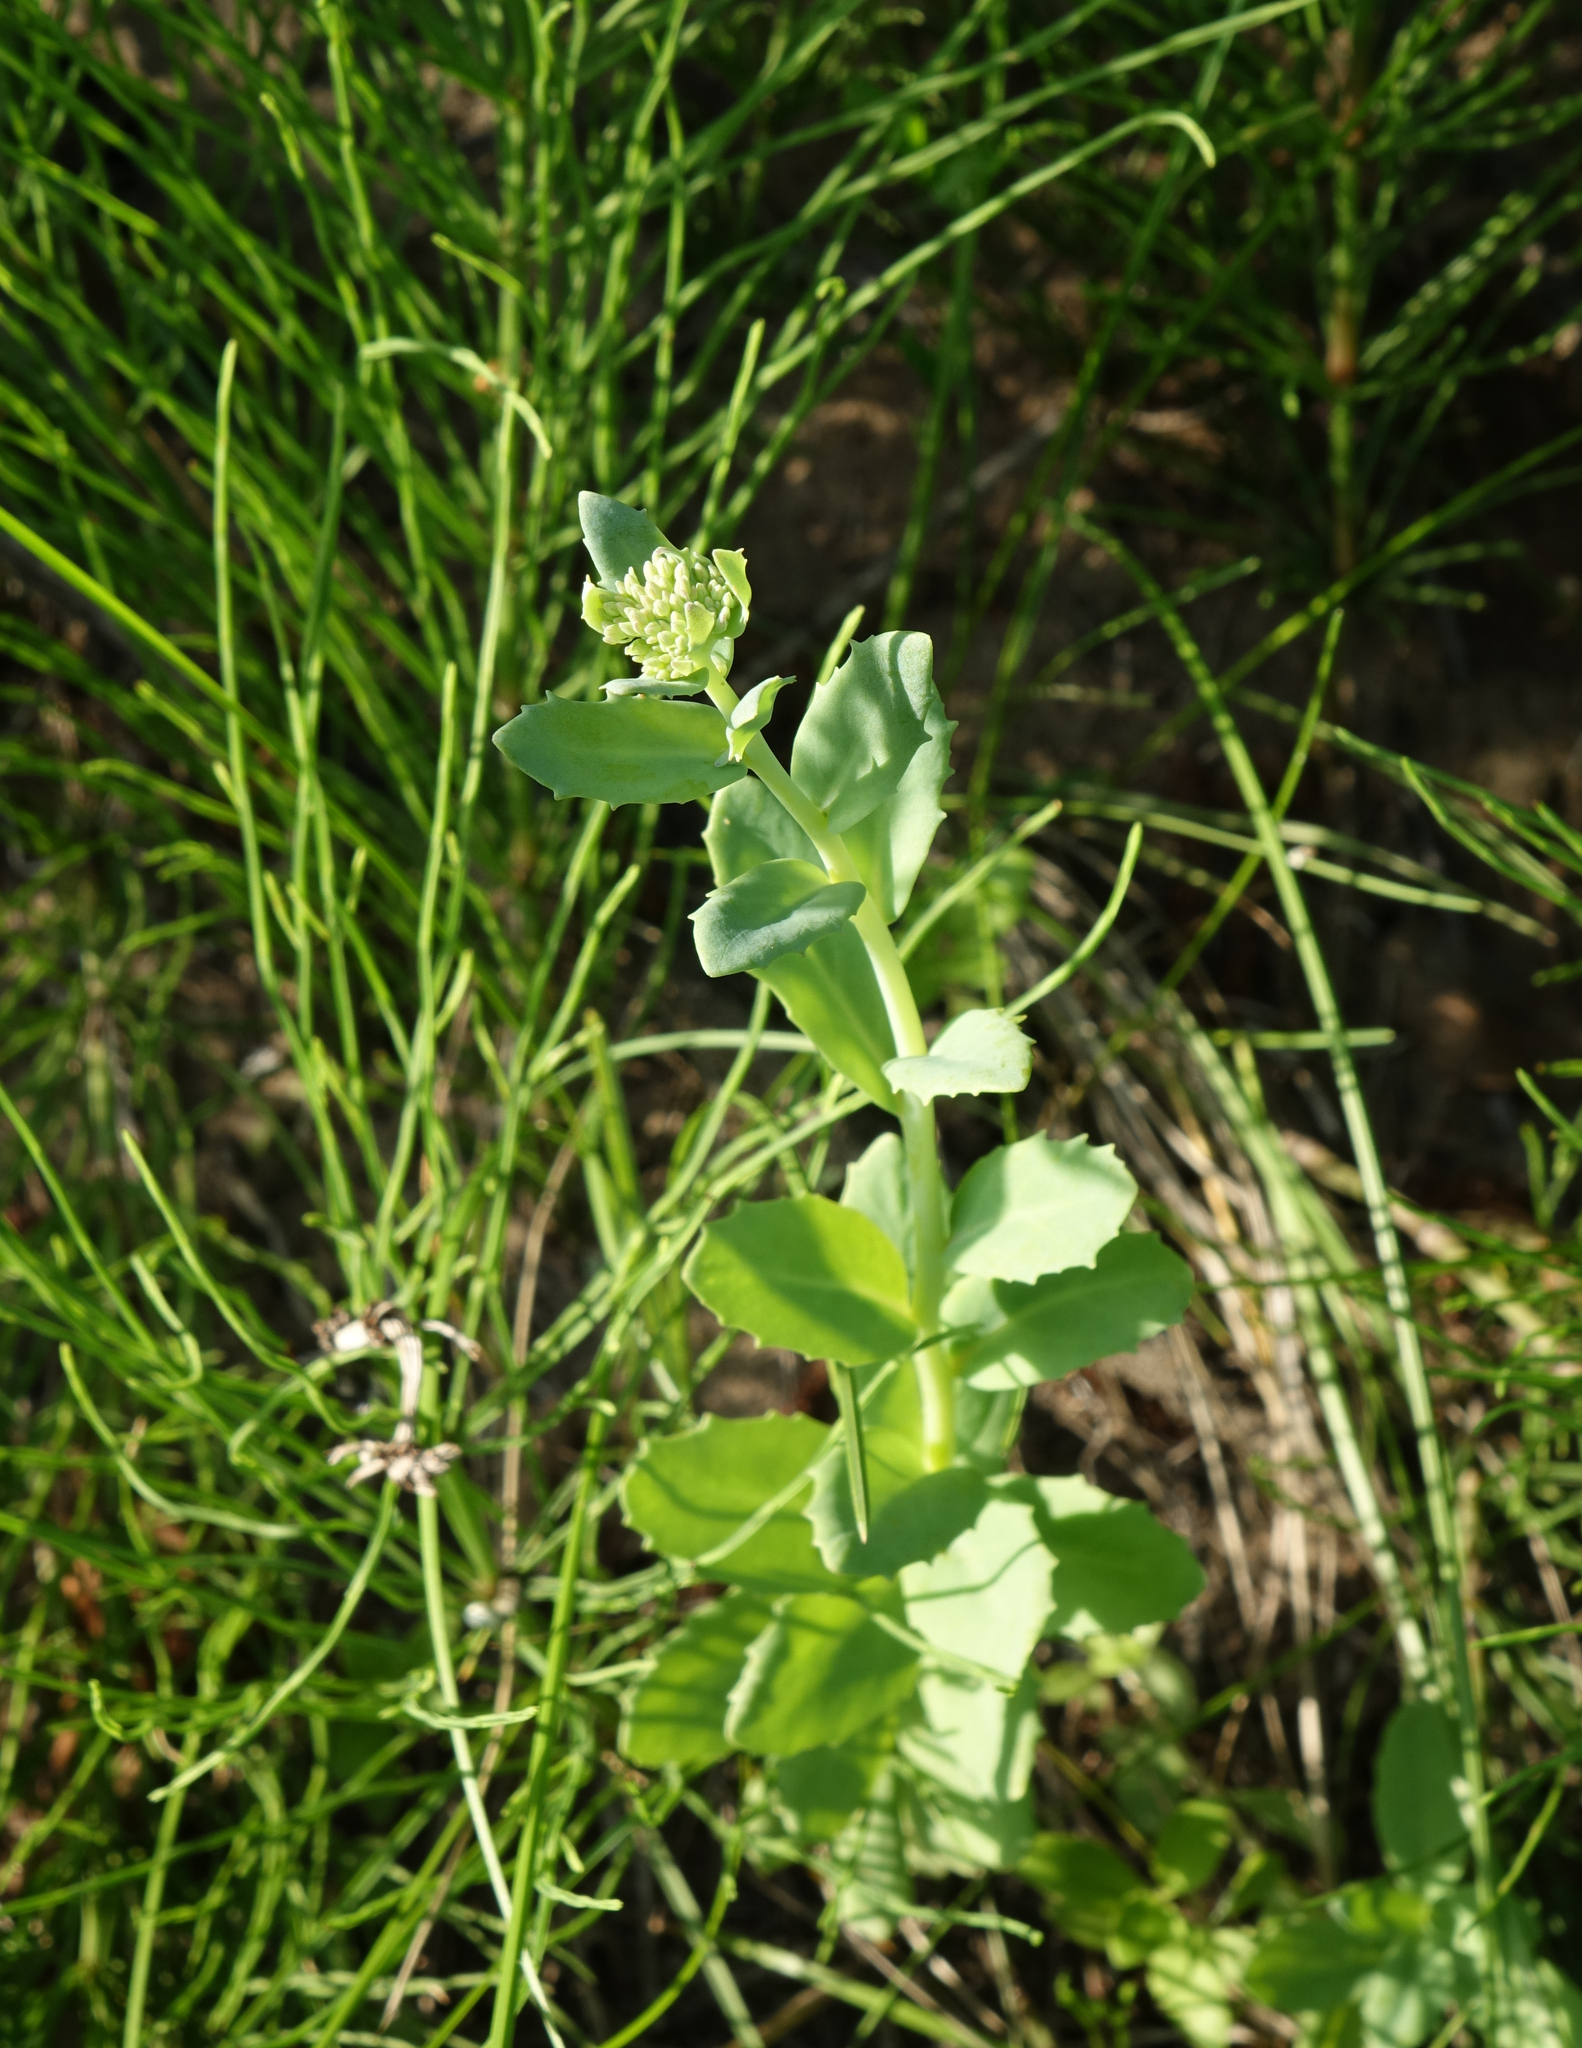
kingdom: Plantae
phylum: Tracheophyta
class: Magnoliopsida
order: Saxifragales
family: Crassulaceae
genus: Hylotelephium
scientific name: Hylotelephium telephium
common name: Live-forever
